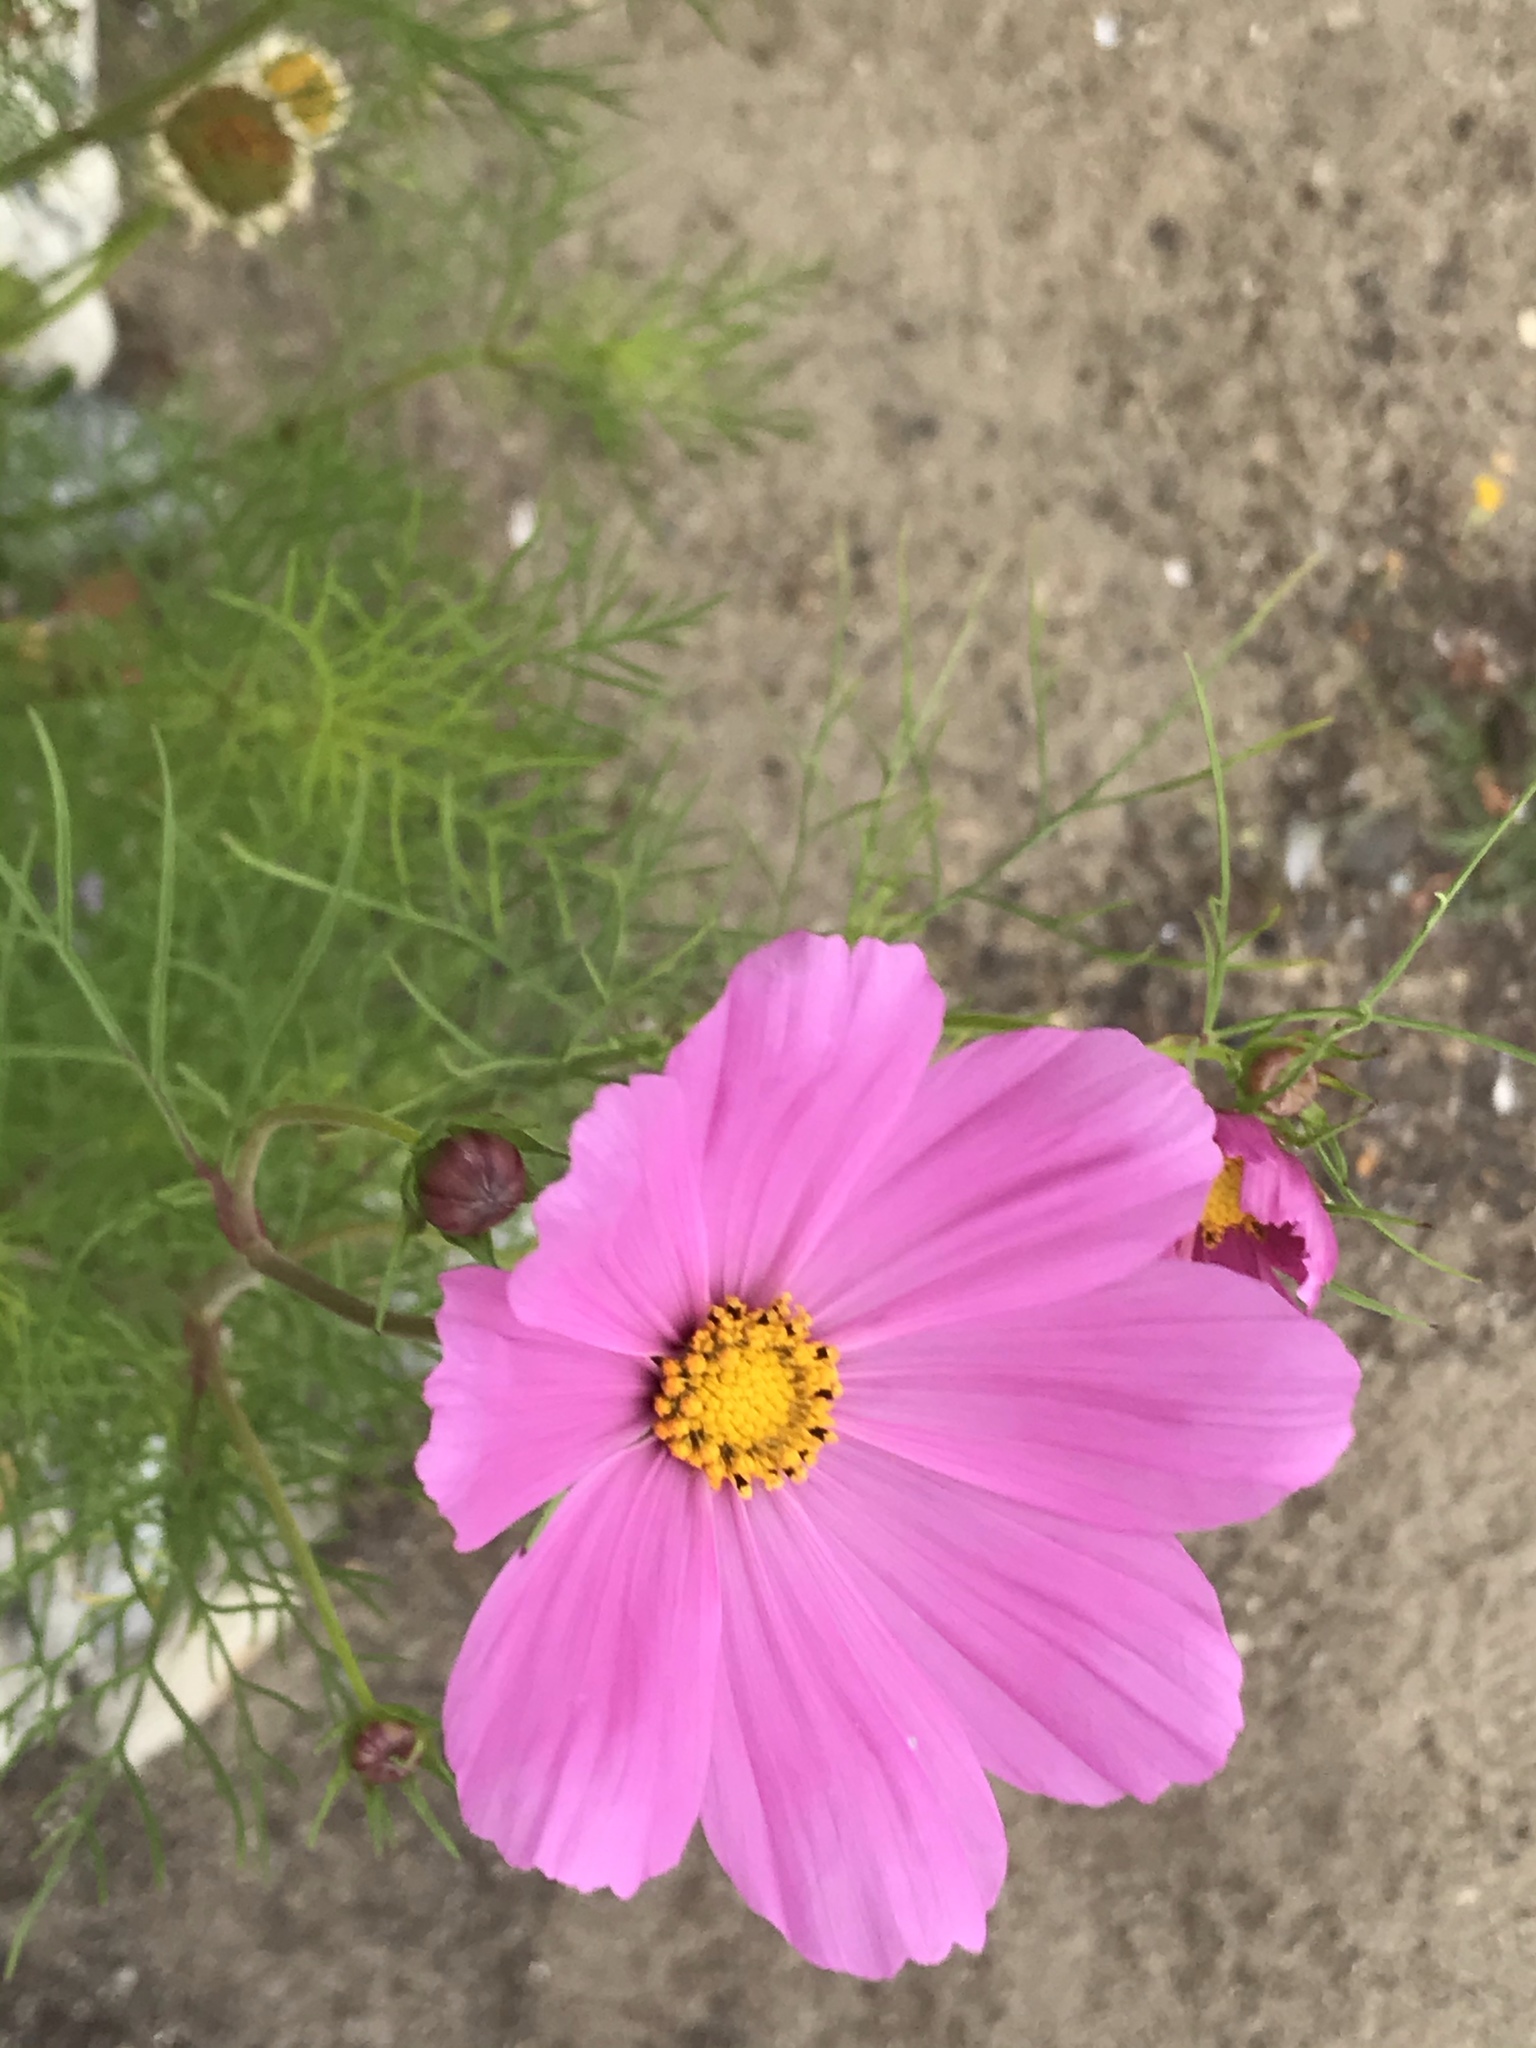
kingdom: Plantae
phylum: Tracheophyta
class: Magnoliopsida
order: Asterales
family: Asteraceae
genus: Cosmos
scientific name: Cosmos bipinnatus
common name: Garden cosmos
